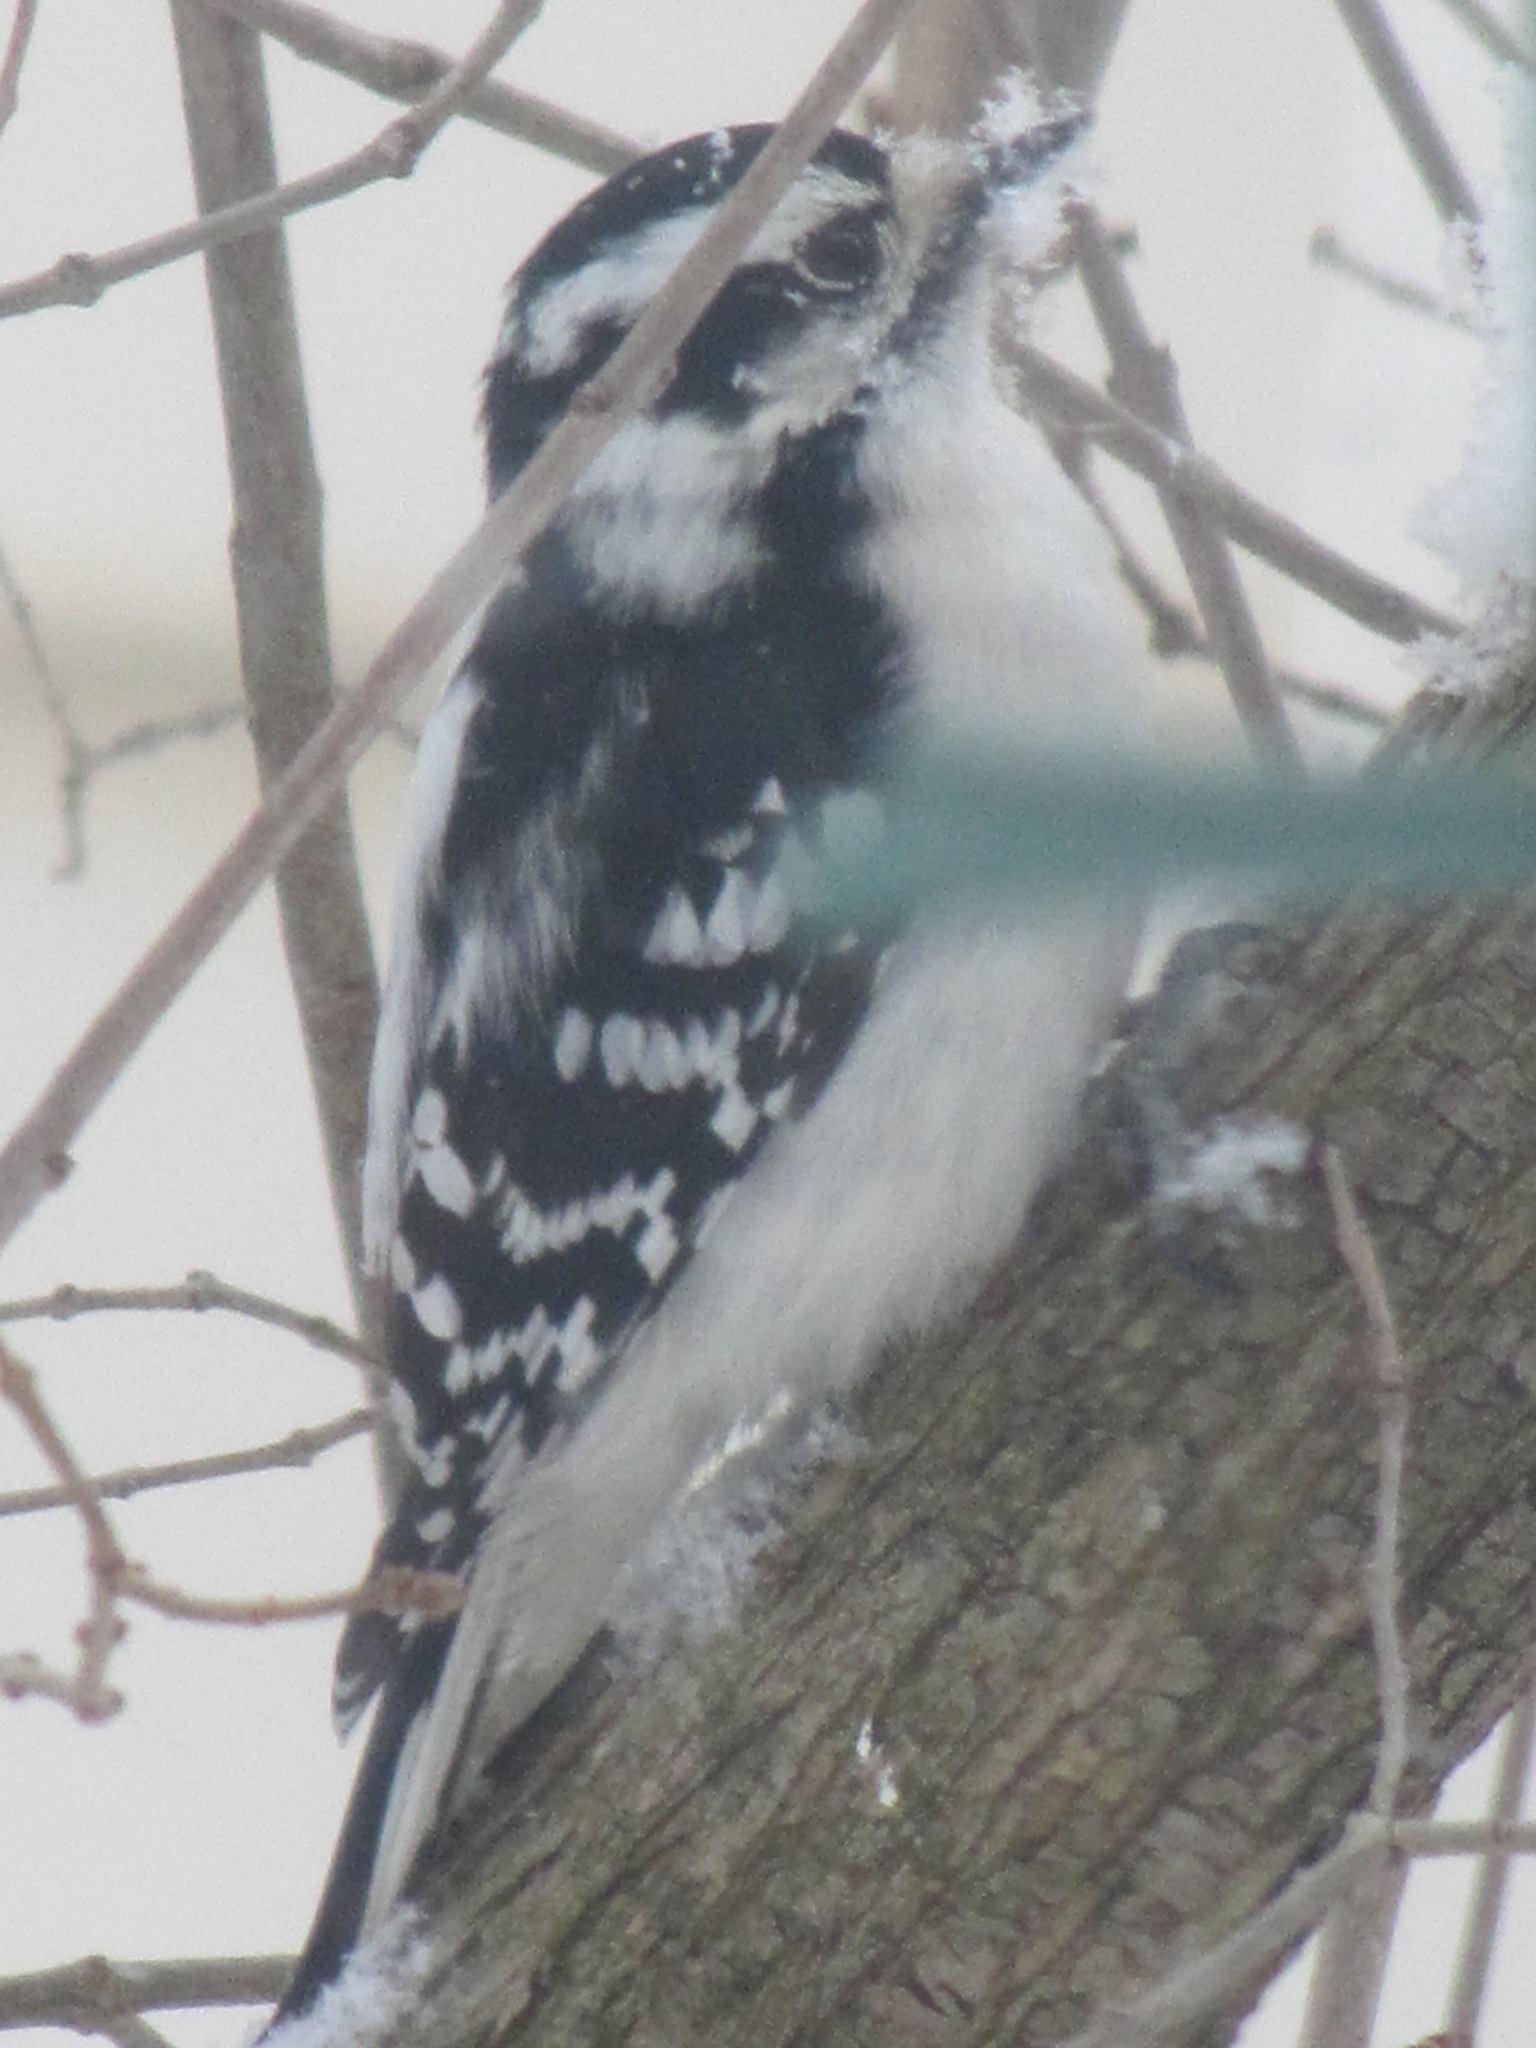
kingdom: Animalia
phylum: Chordata
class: Aves
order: Piciformes
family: Picidae
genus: Dryobates
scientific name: Dryobates pubescens
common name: Downy woodpecker
